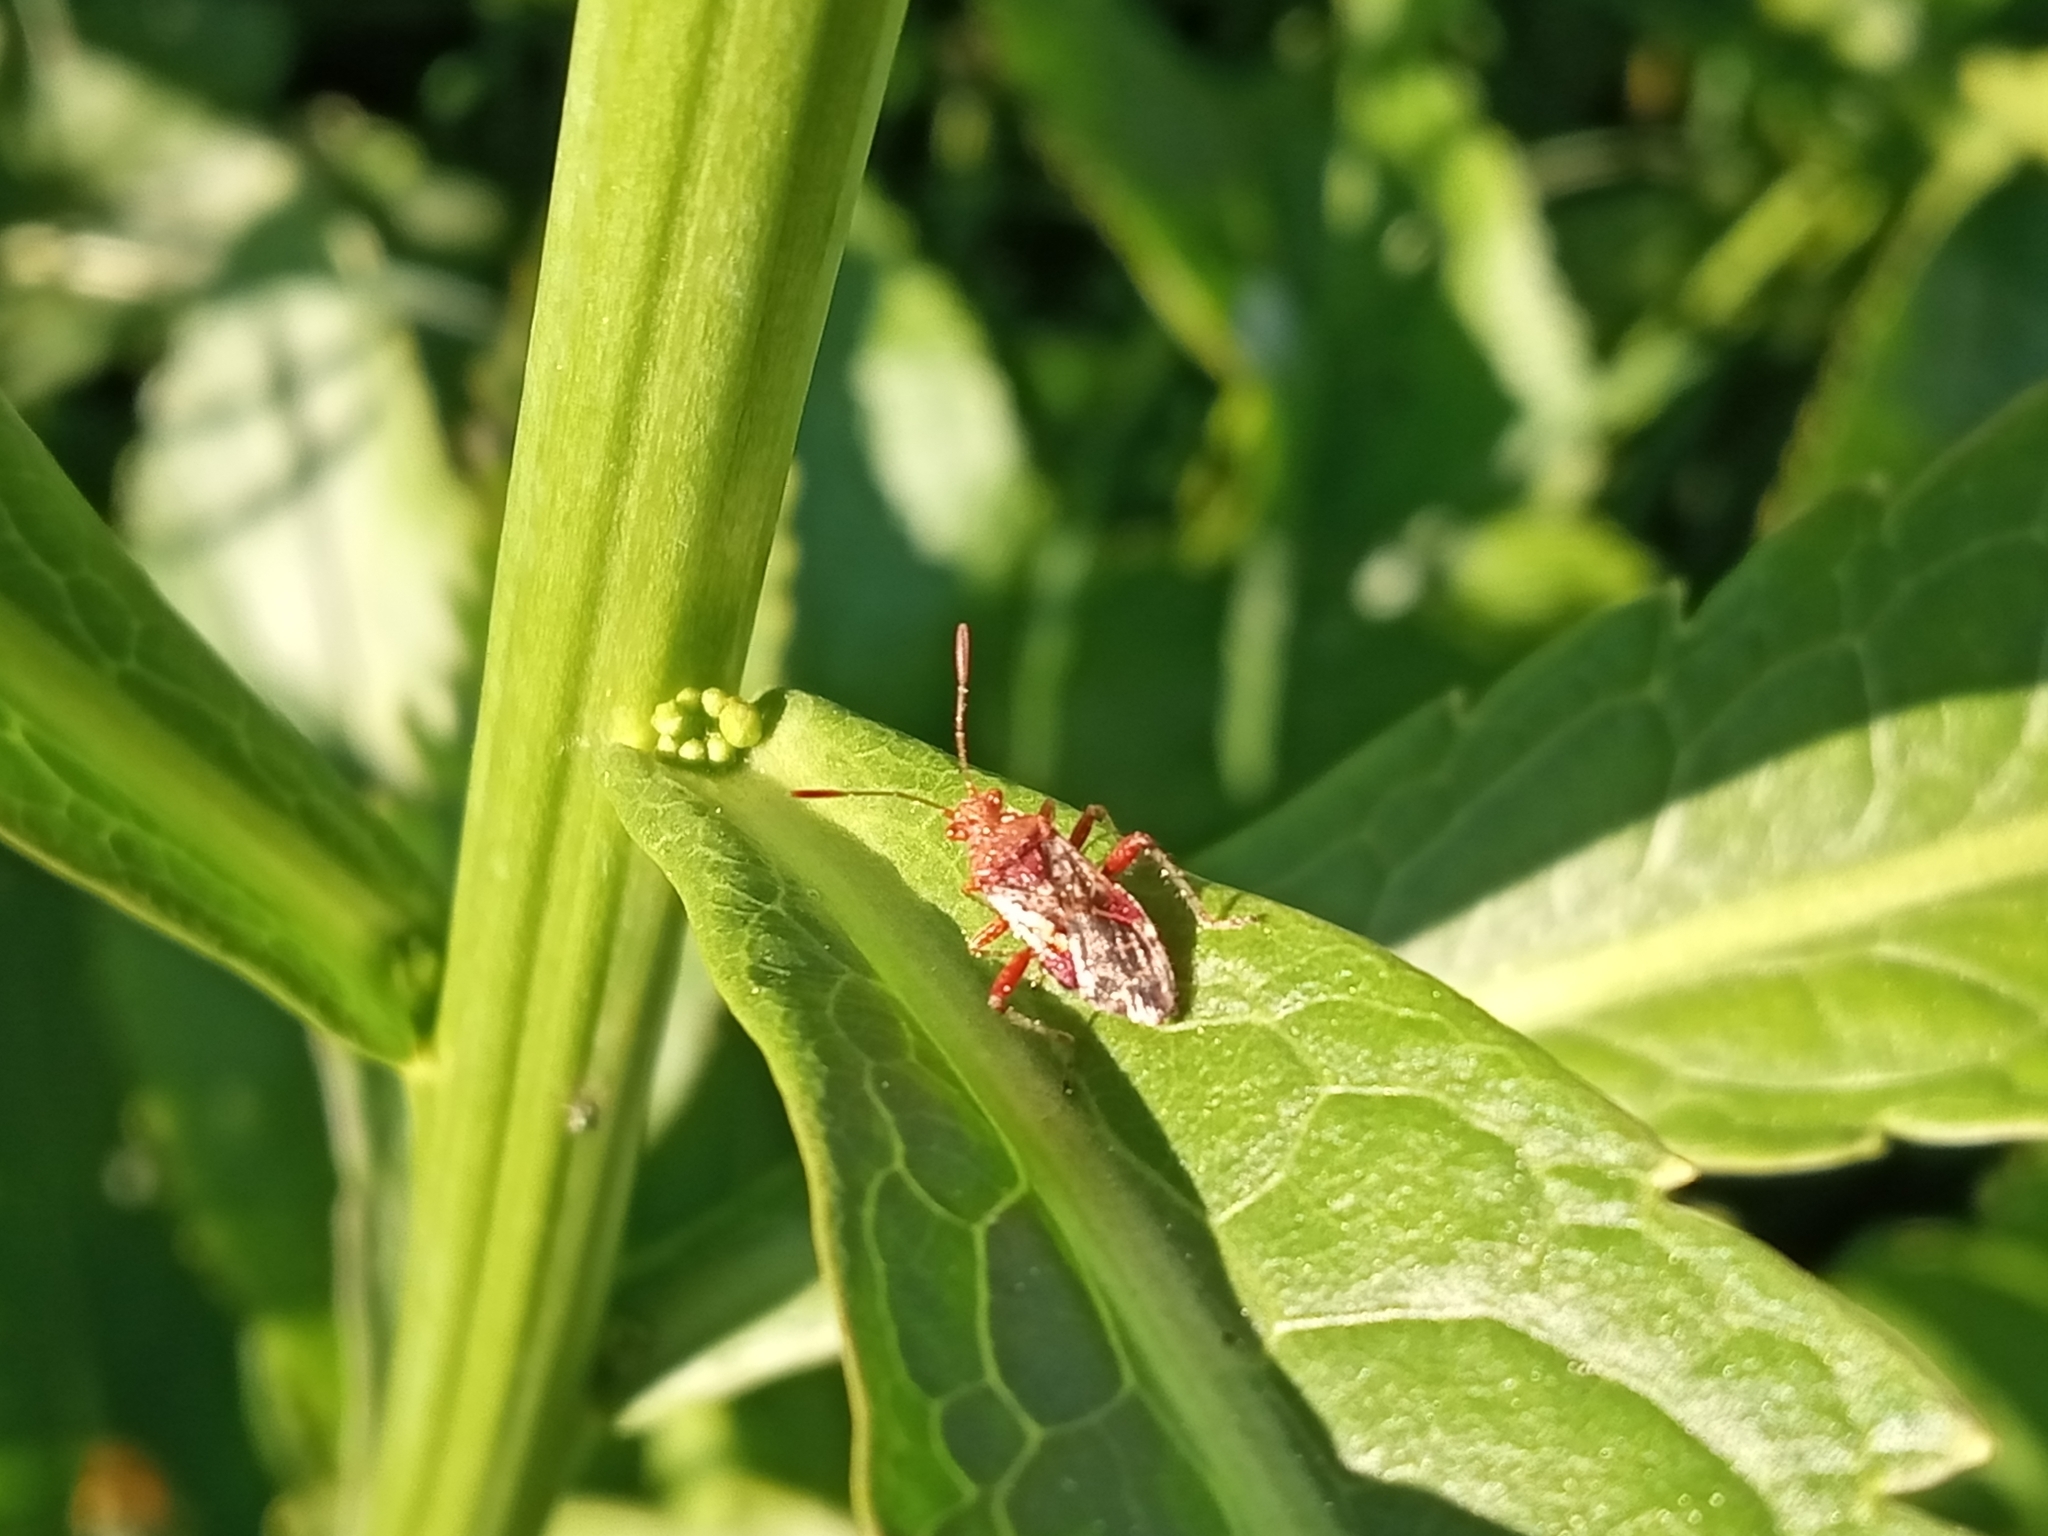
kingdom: Animalia
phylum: Arthropoda
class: Insecta
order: Hemiptera
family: Rhopalidae
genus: Rhopalus
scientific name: Rhopalus subrufus
